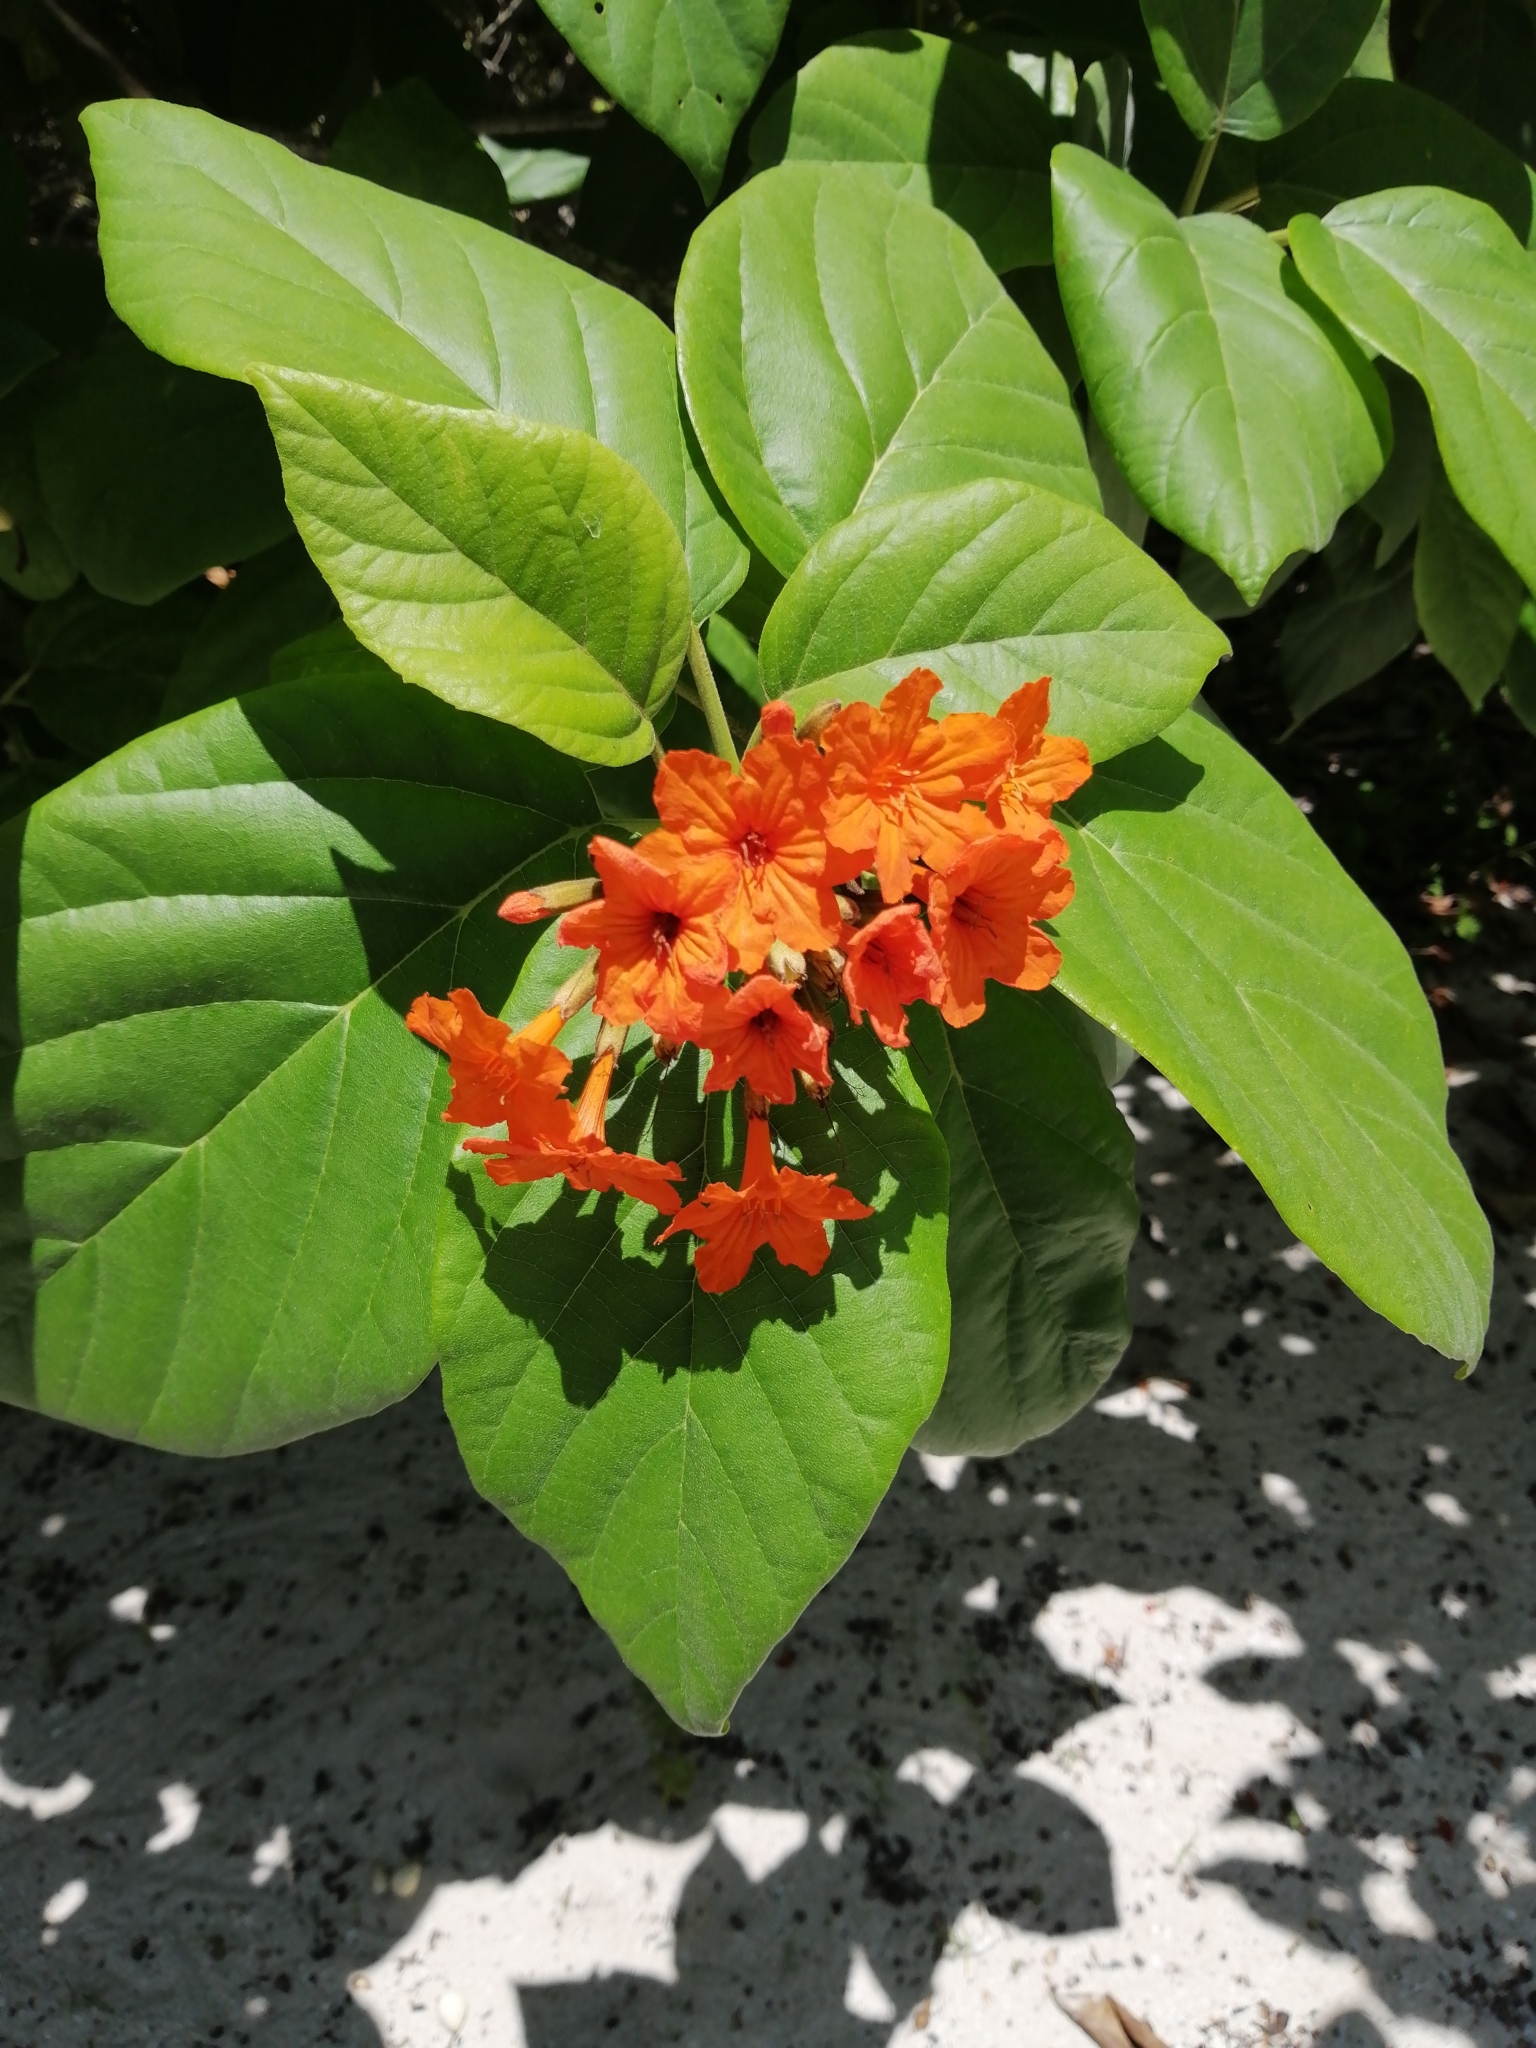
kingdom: Plantae
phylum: Tracheophyta
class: Magnoliopsida
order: Boraginales
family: Cordiaceae
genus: Cordia
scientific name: Cordia sebestena
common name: Largeleaf geigertree
